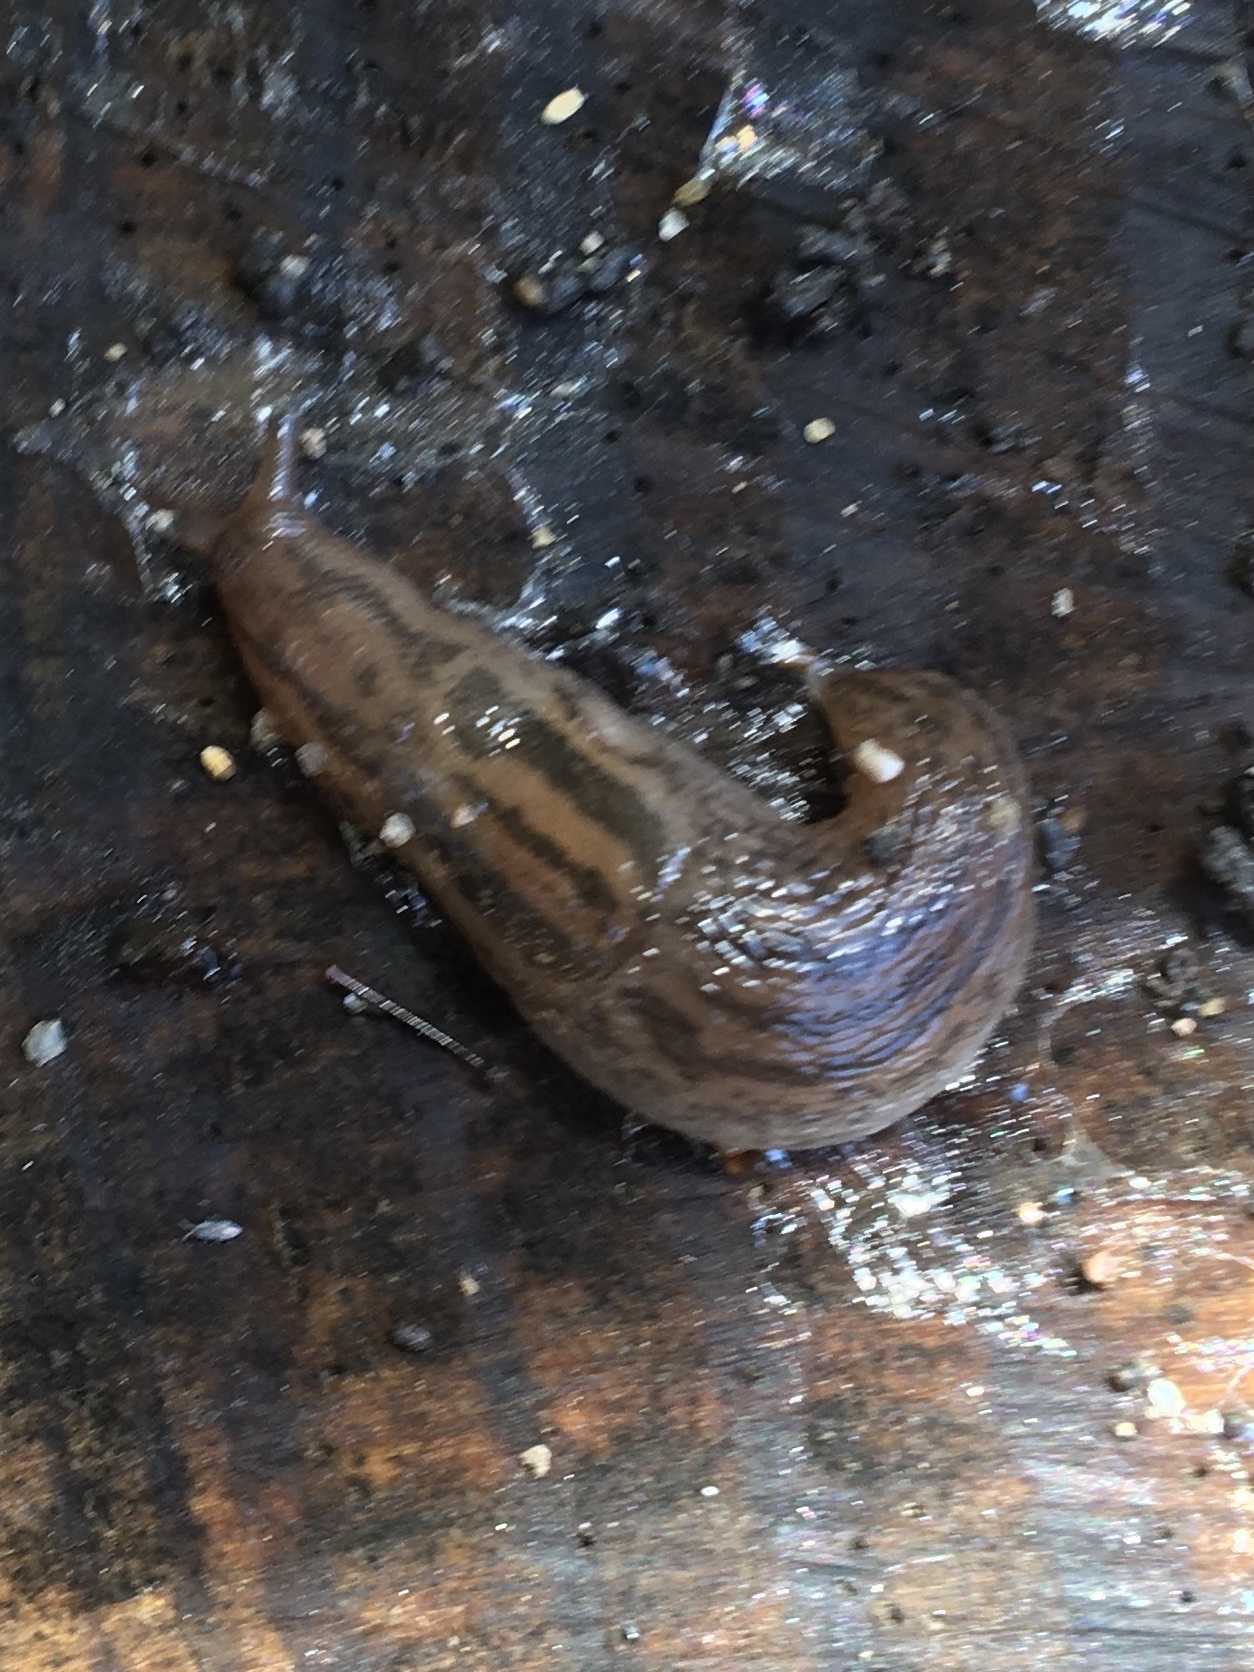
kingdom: Animalia
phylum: Mollusca
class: Gastropoda
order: Stylommatophora
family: Limacidae
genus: Ambigolimax
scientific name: Ambigolimax
